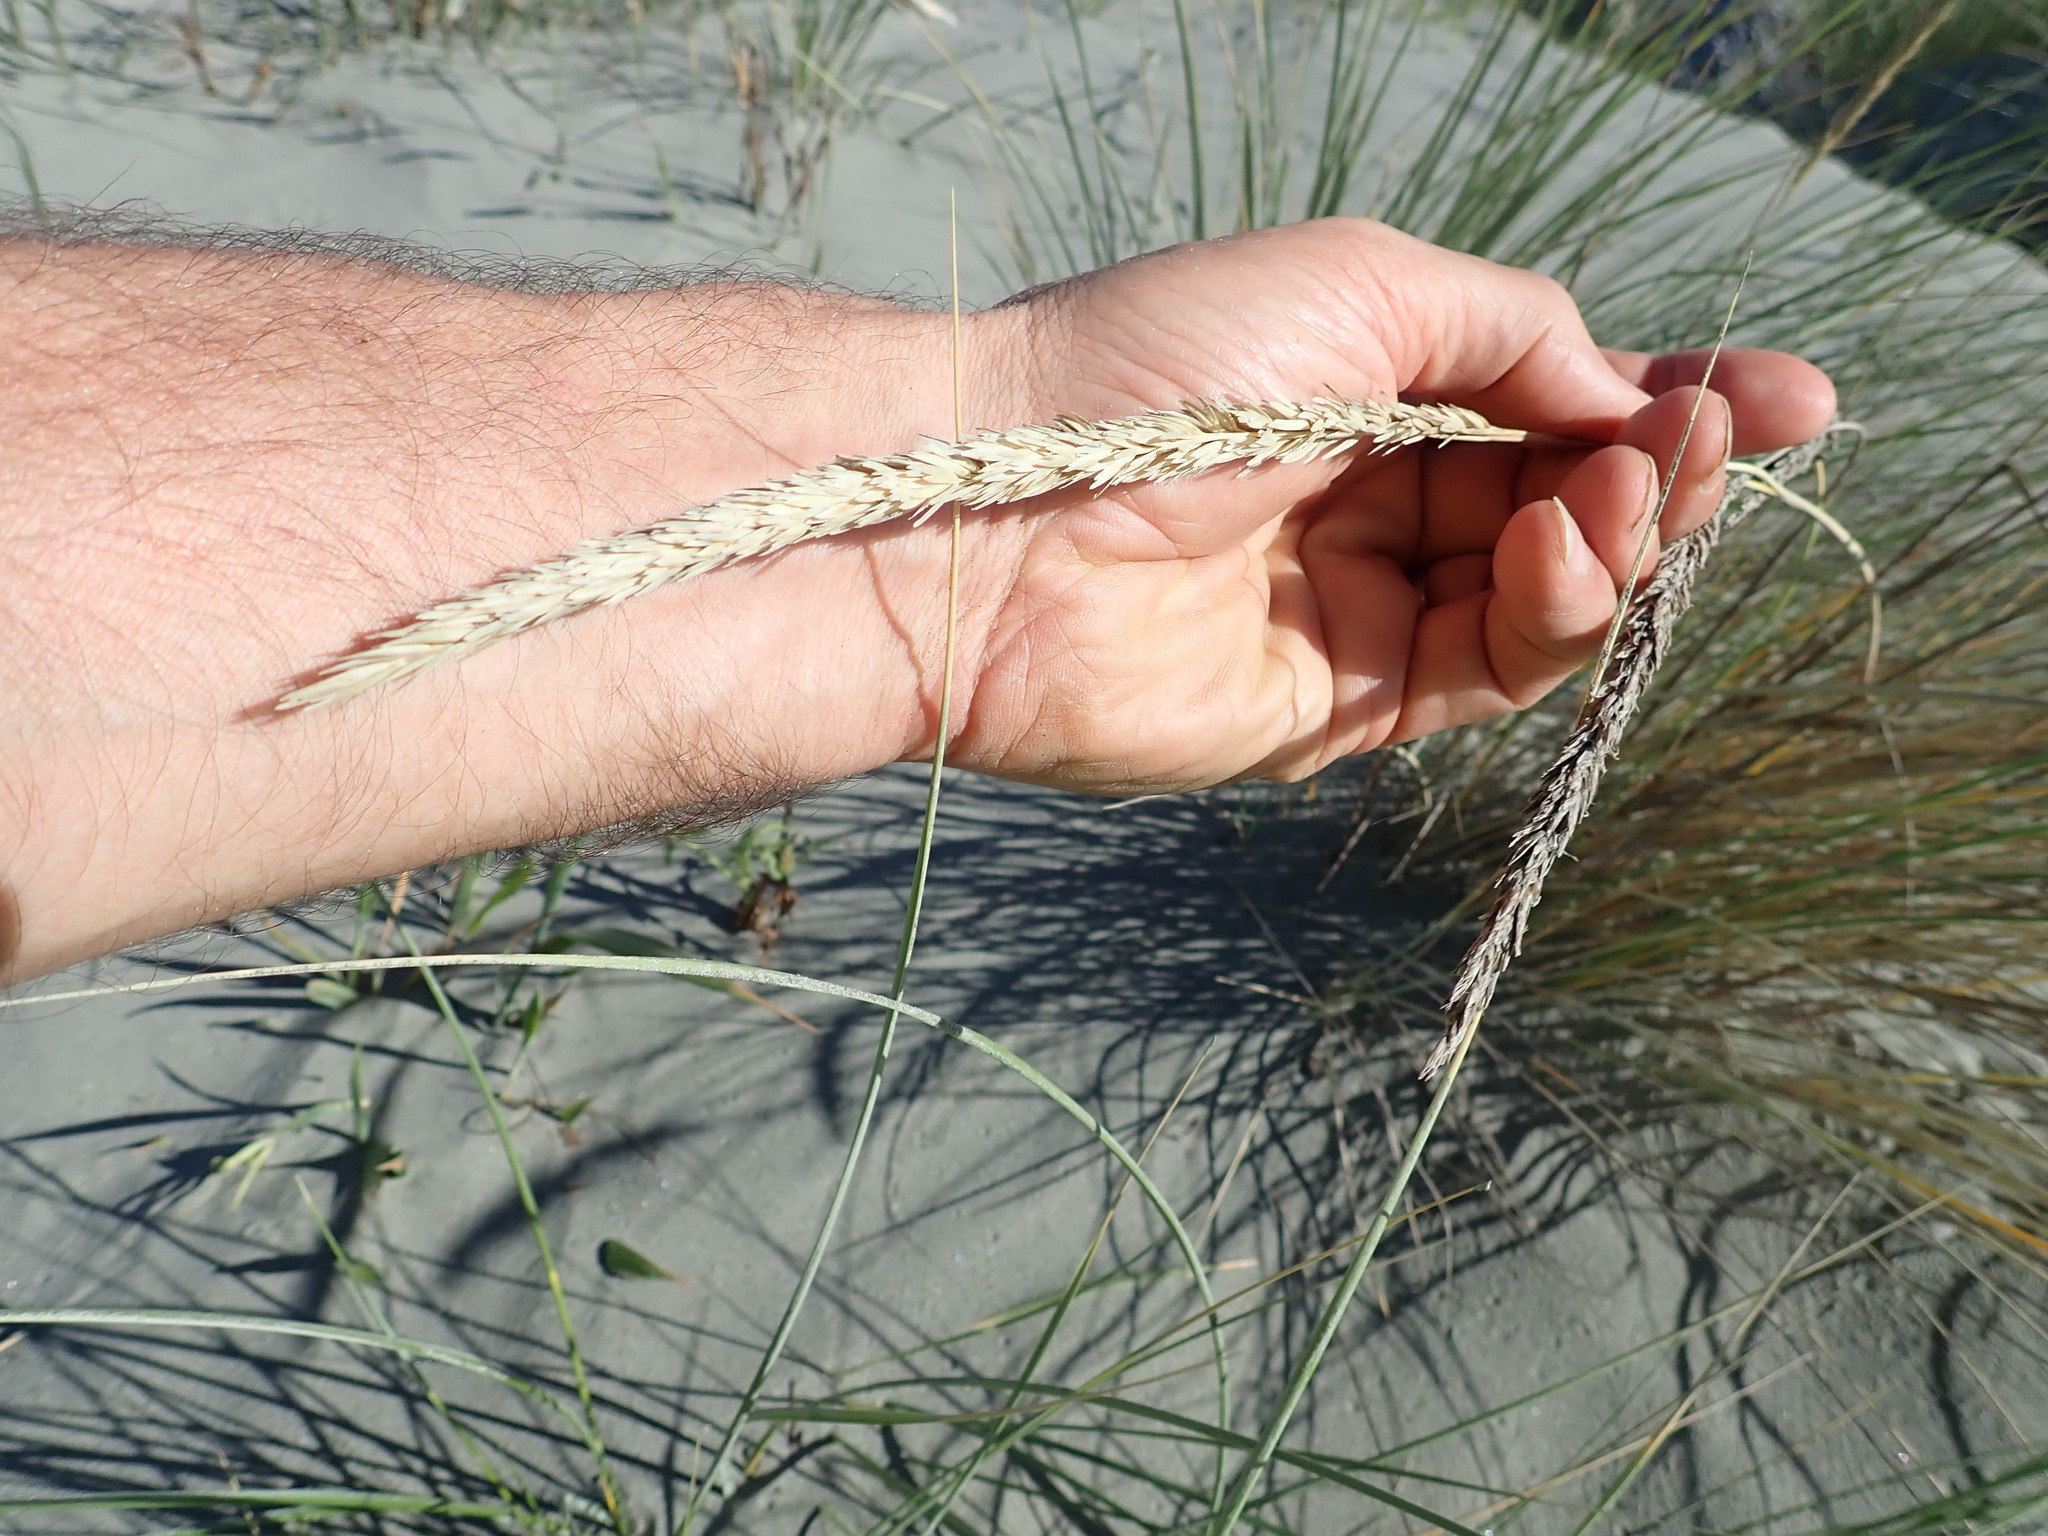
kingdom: Plantae
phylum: Tracheophyta
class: Liliopsida
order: Poales
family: Poaceae
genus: Calamagrostis
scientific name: Calamagrostis arenaria
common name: European beachgrass
